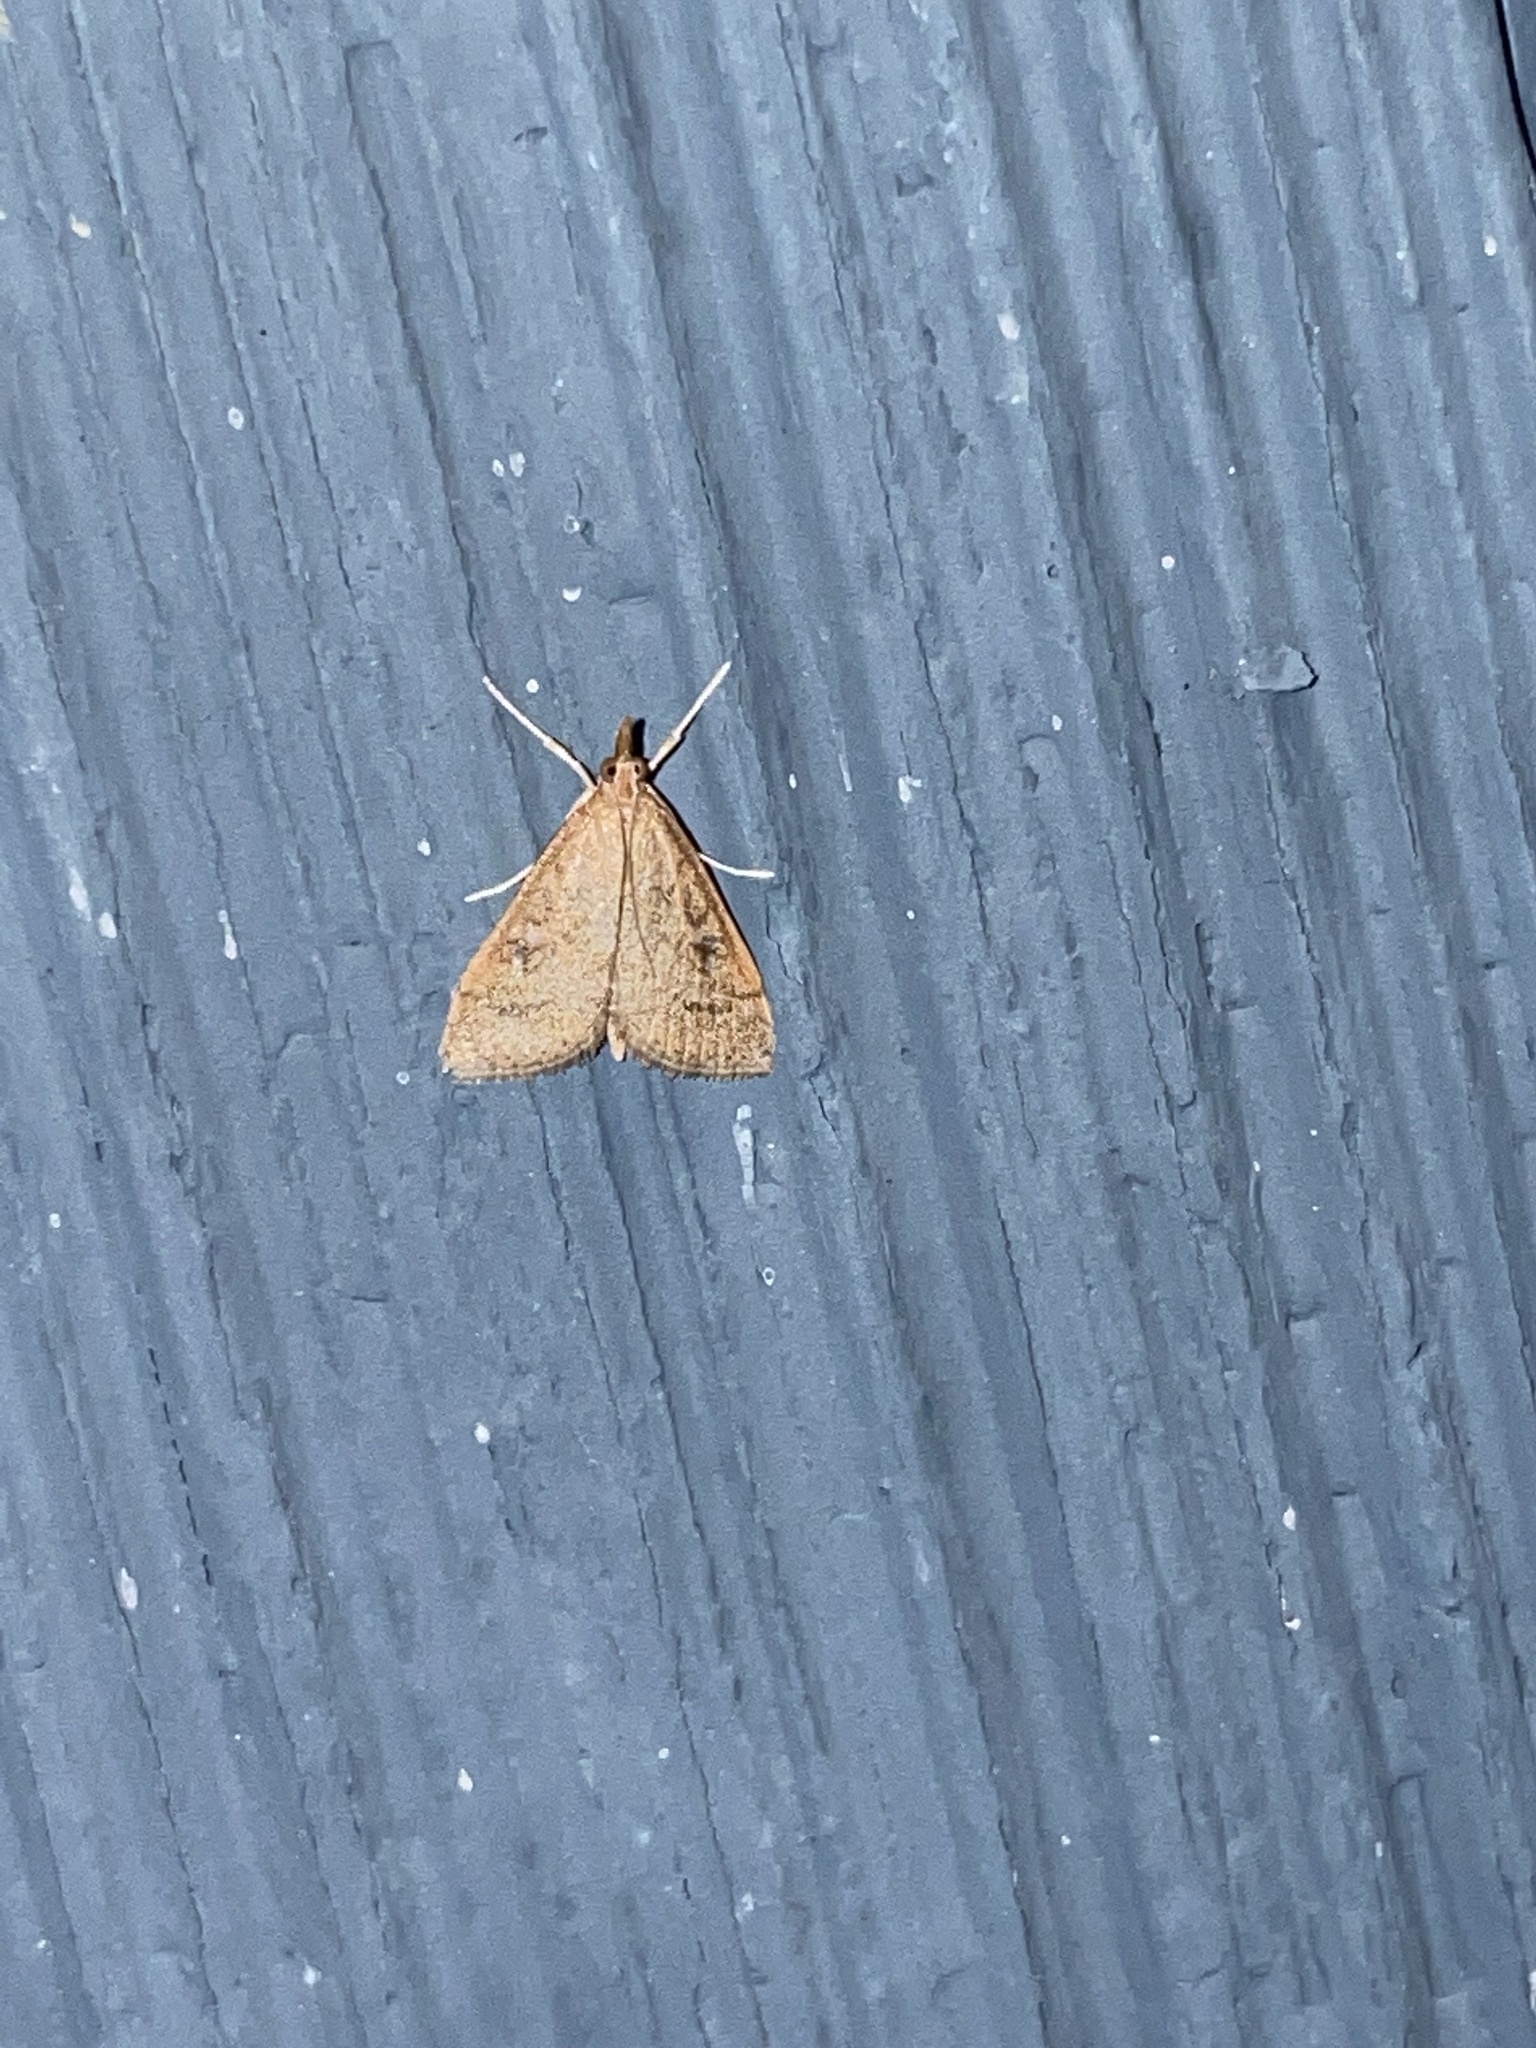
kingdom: Animalia
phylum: Arthropoda
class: Insecta
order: Lepidoptera
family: Crambidae
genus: Udea
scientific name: Udea rubigalis
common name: Celery leaftier moth
